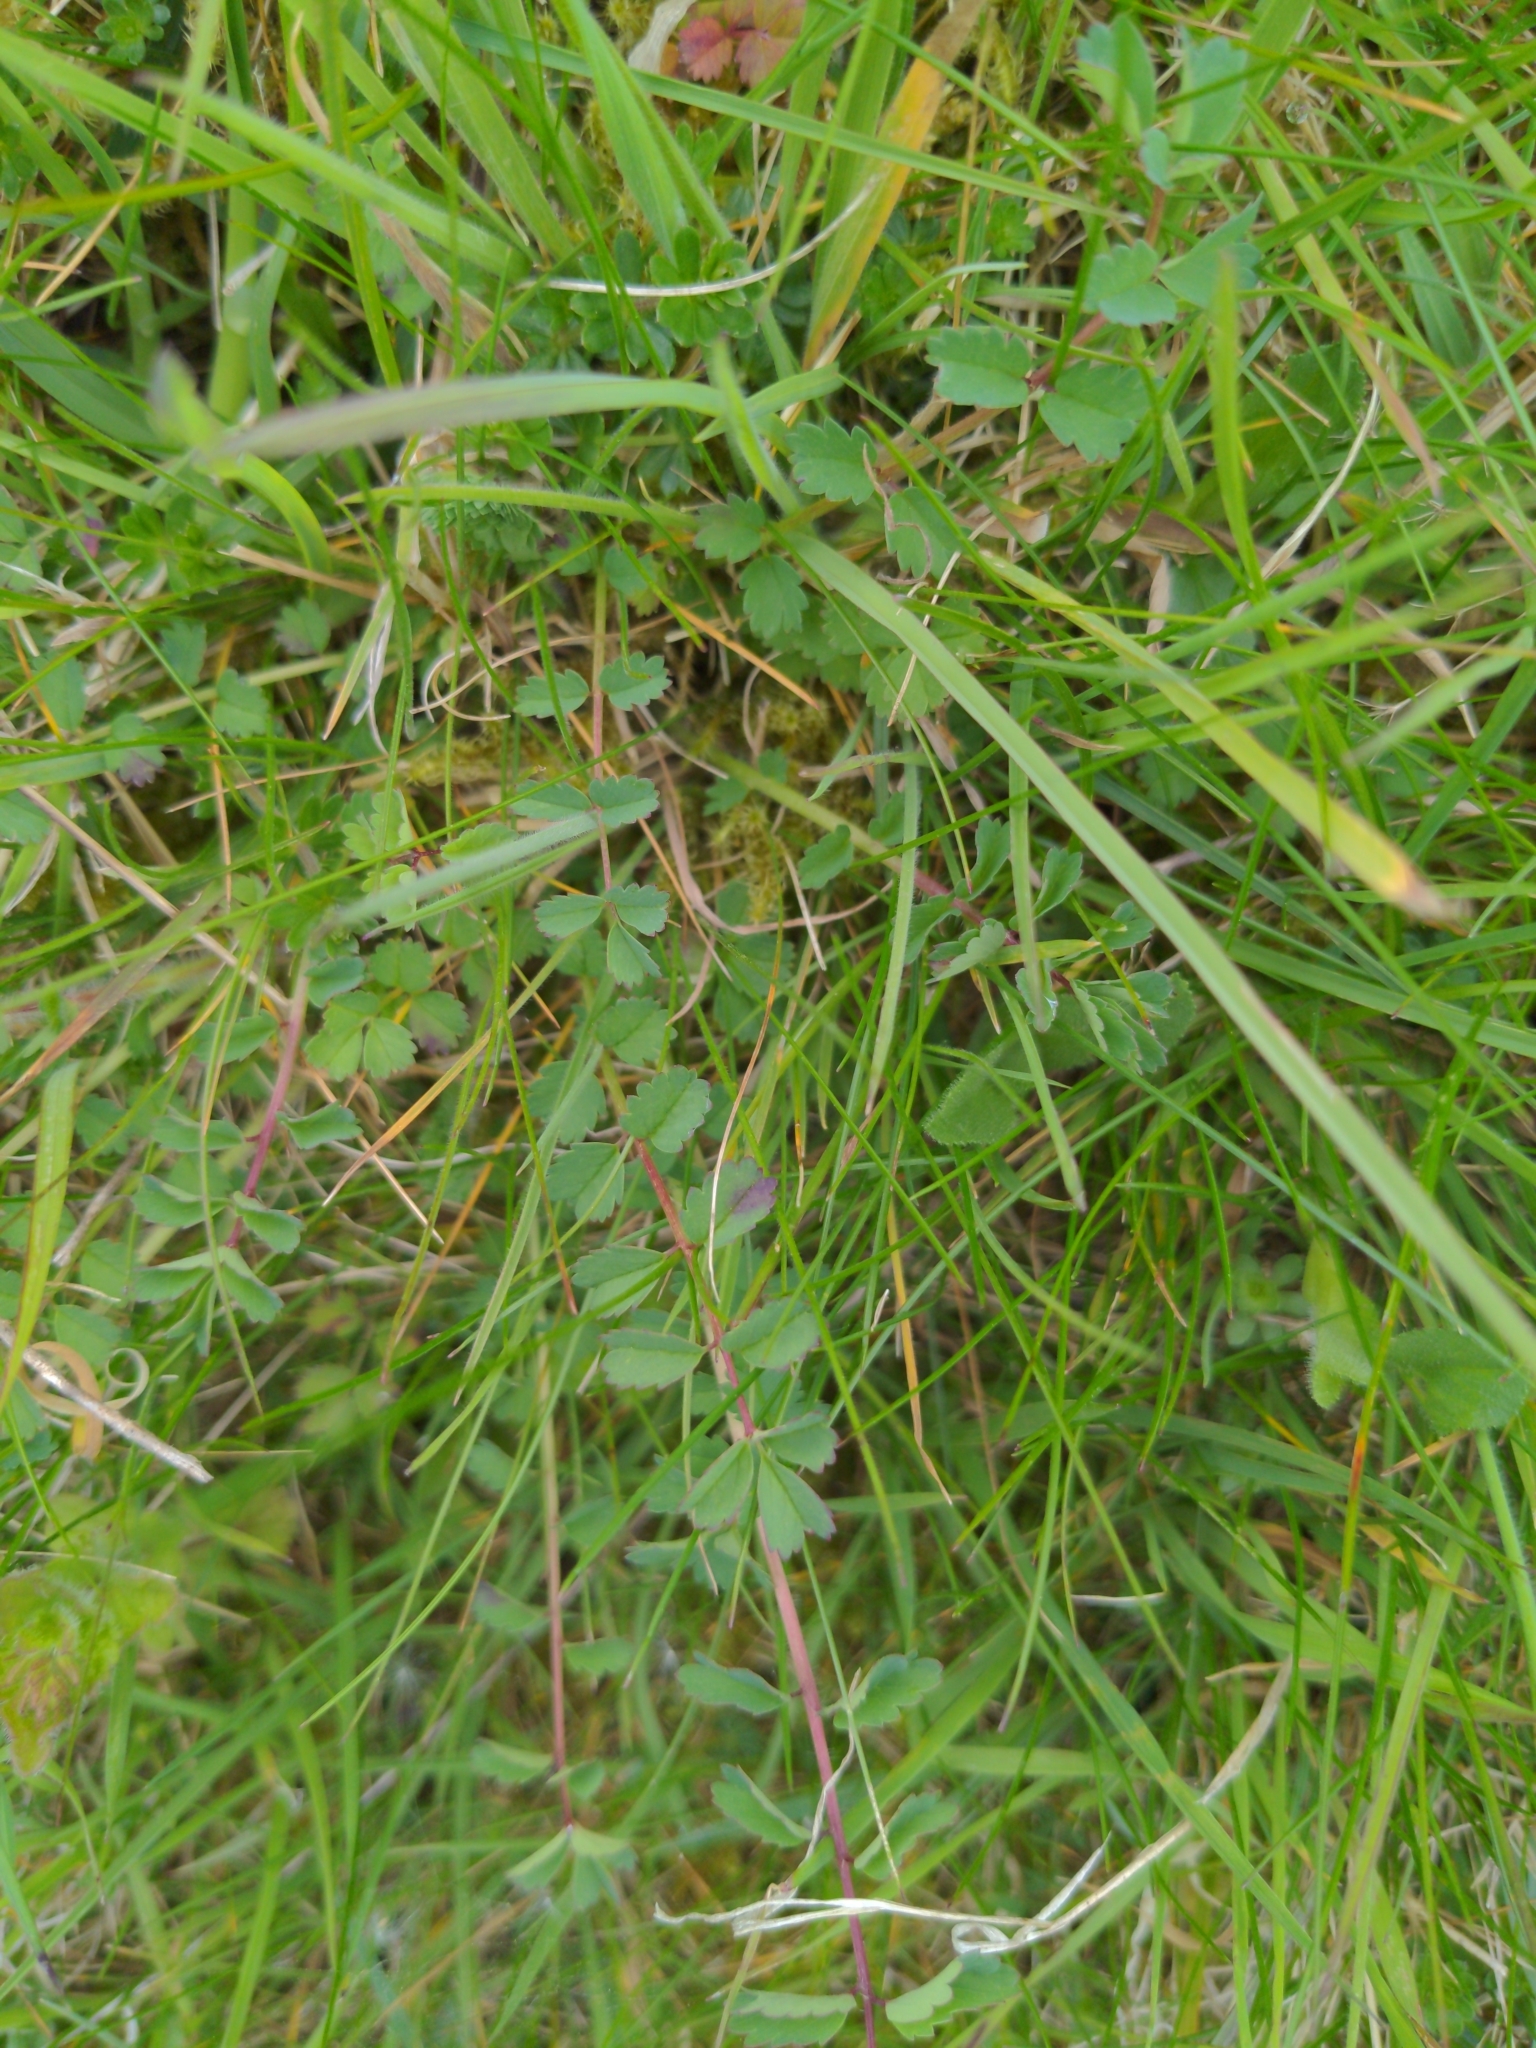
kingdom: Plantae
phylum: Tracheophyta
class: Magnoliopsida
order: Rosales
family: Rosaceae
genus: Poterium
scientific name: Poterium sanguisorba
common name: Salad burnet
